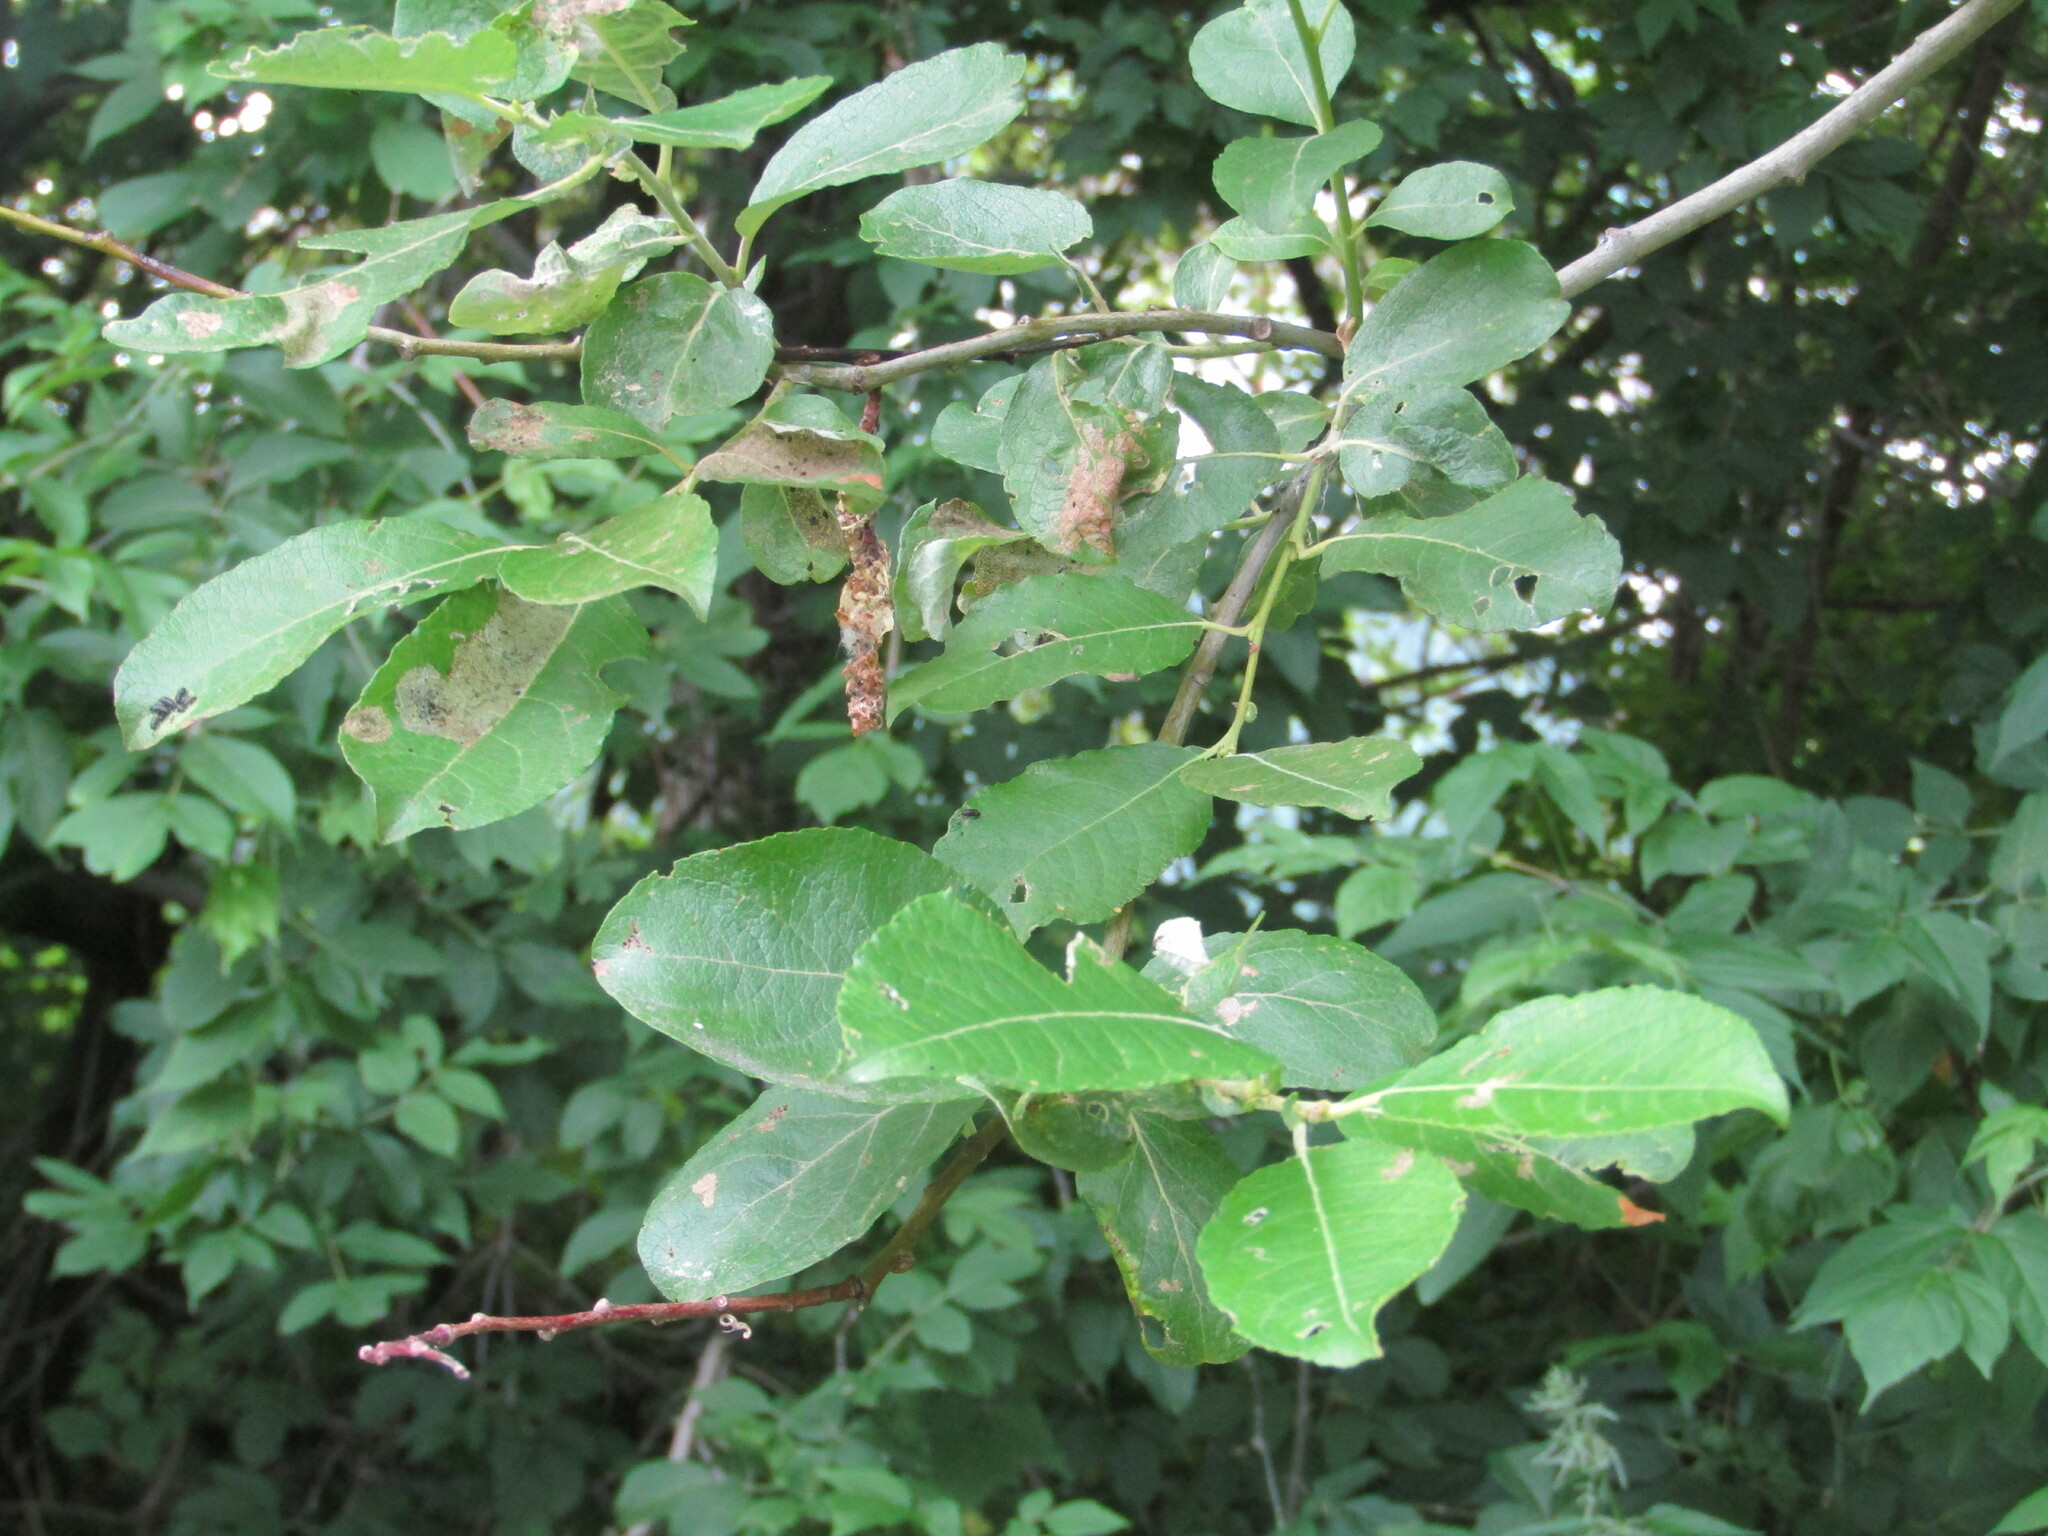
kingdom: Plantae
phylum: Tracheophyta
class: Magnoliopsida
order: Malpighiales
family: Salicaceae
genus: Salix
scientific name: Salix caprea
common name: Goat willow
